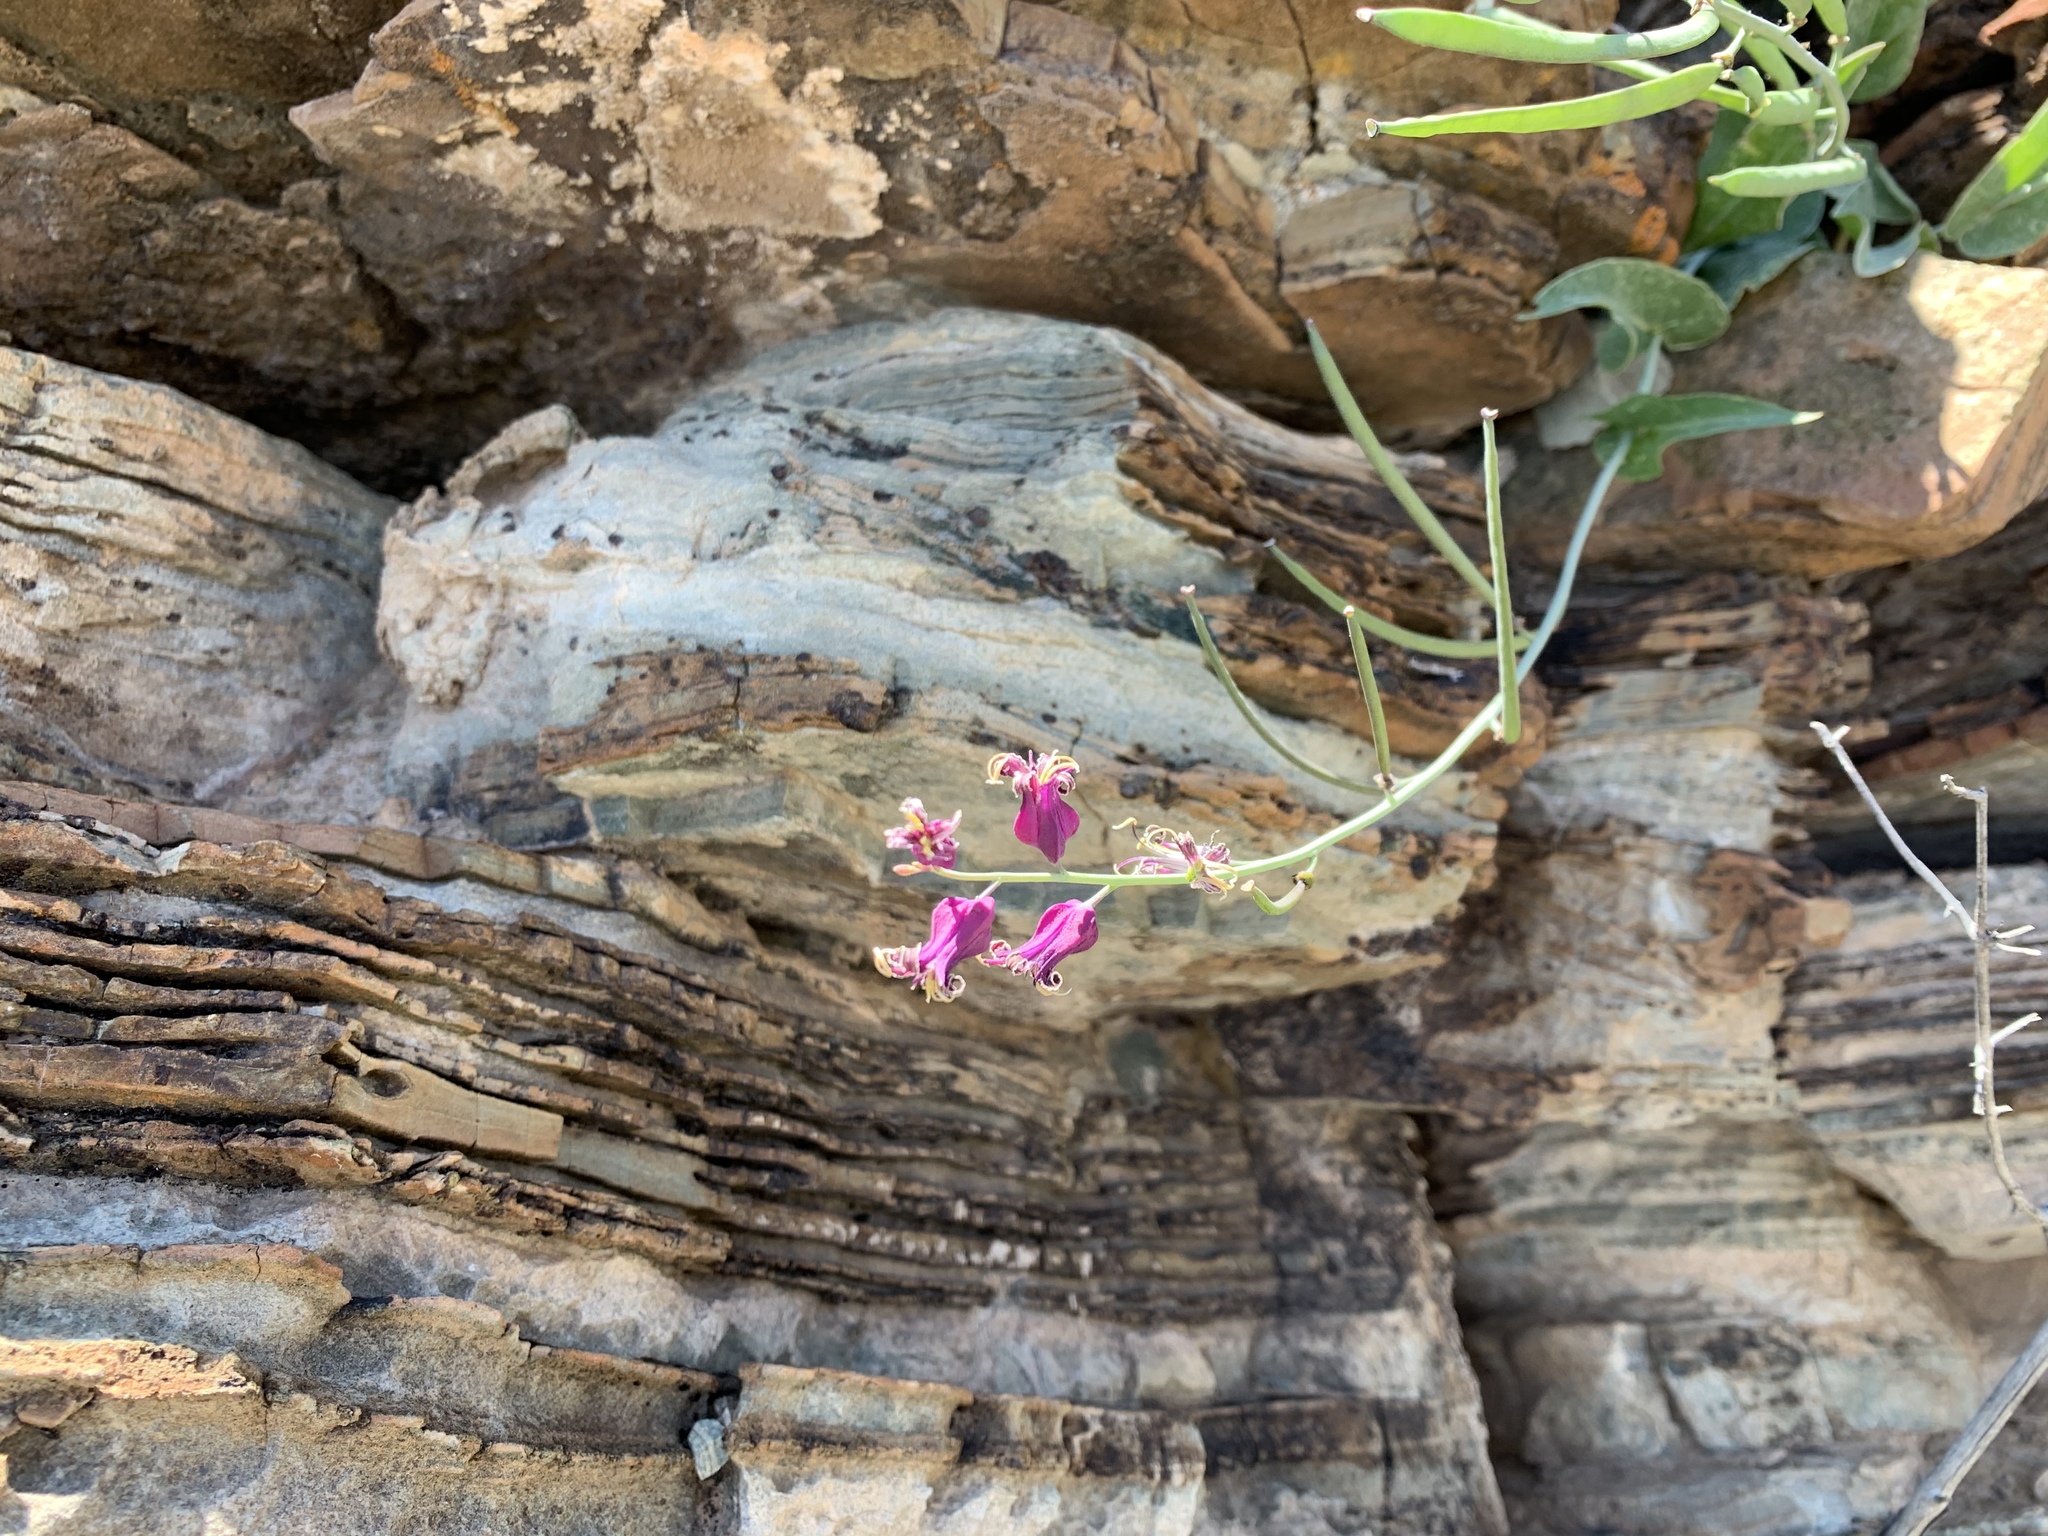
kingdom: Plantae
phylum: Tracheophyta
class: Magnoliopsida
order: Brassicales
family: Brassicaceae
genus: Streptanthus
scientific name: Streptanthus carinatus
